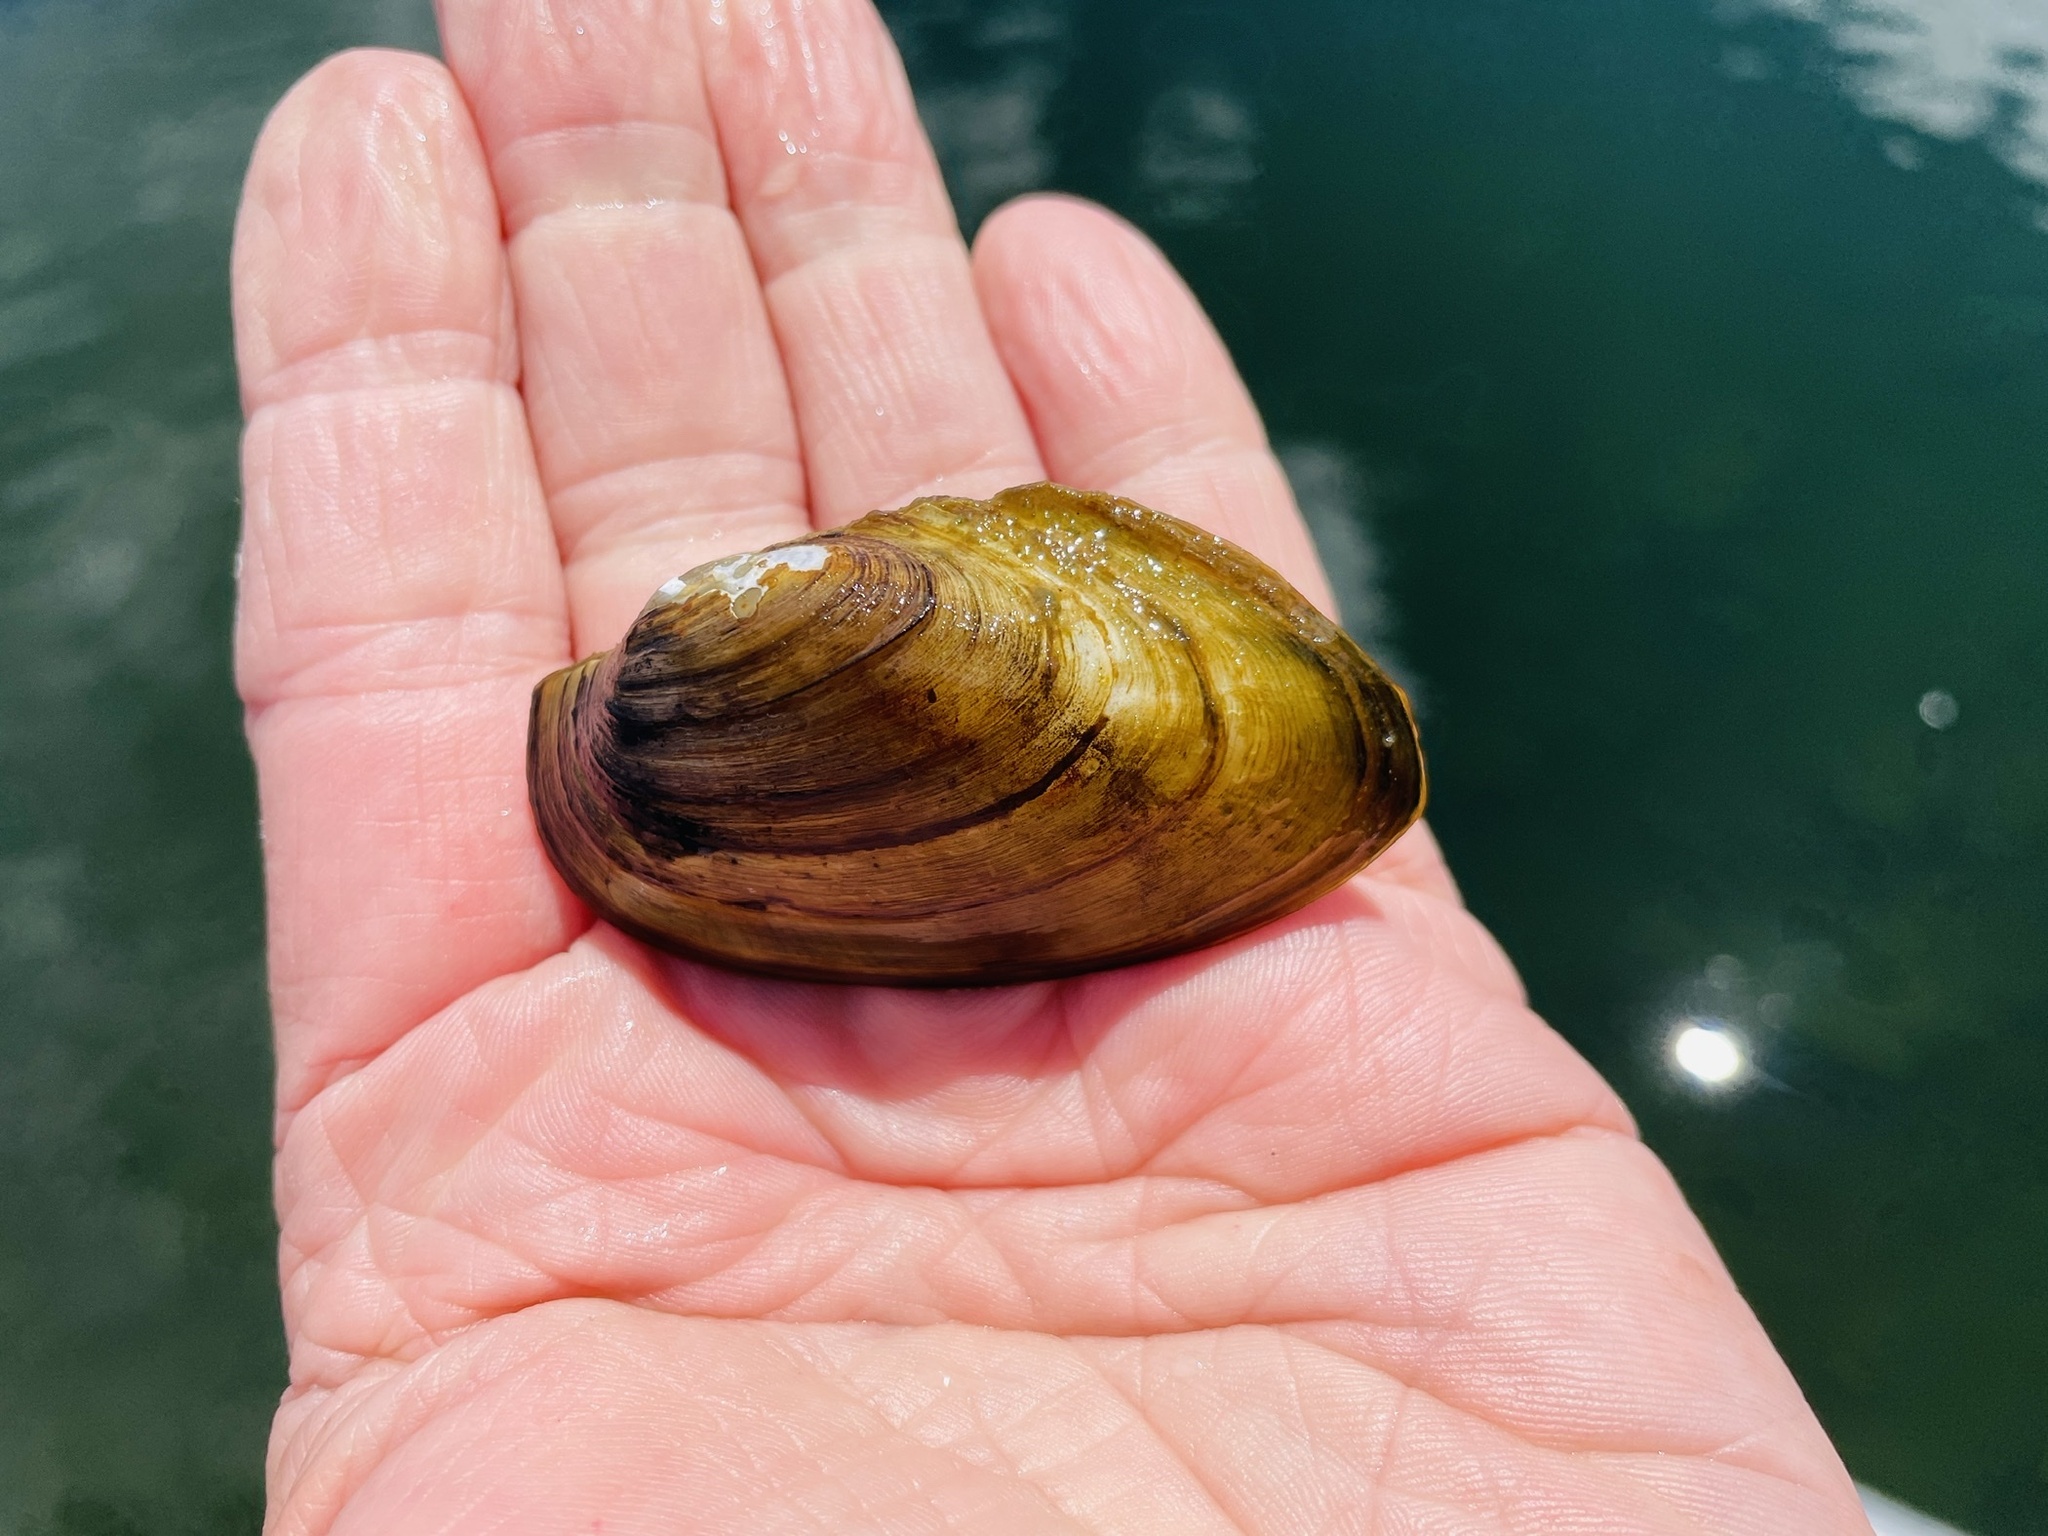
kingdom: Animalia
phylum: Mollusca
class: Bivalvia
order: Unionida
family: Unionidae
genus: Pyganodon
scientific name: Pyganodon grandis
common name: Giant floater
